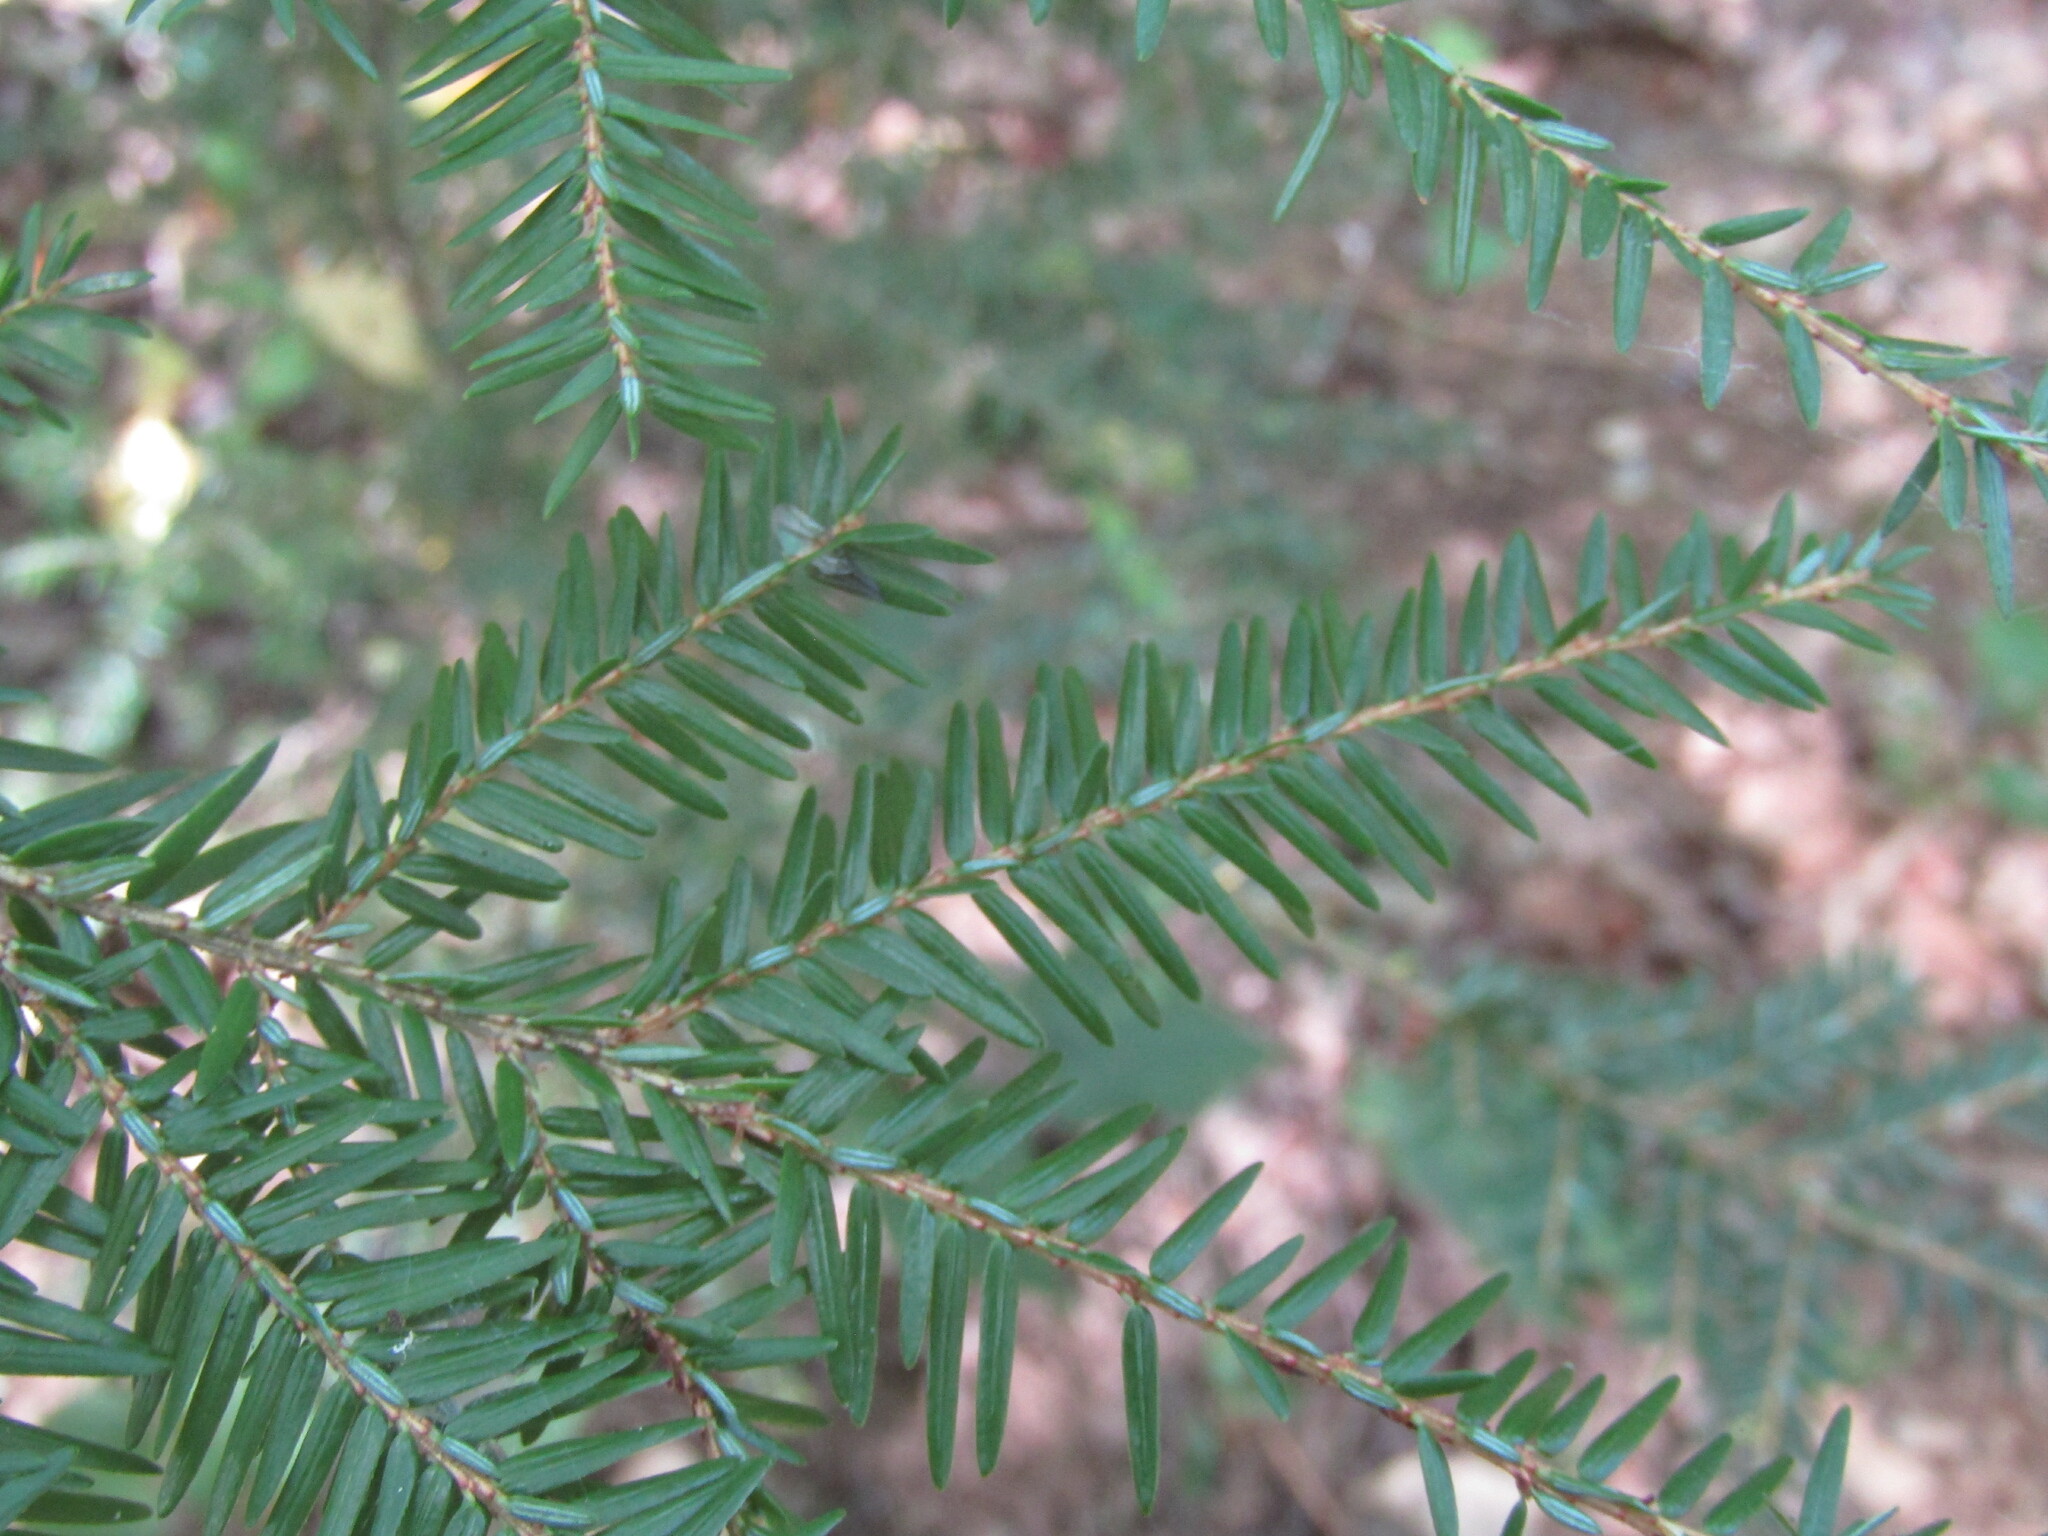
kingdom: Plantae
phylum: Tracheophyta
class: Pinopsida
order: Pinales
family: Pinaceae
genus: Tsuga
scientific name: Tsuga canadensis
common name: Eastern hemlock
